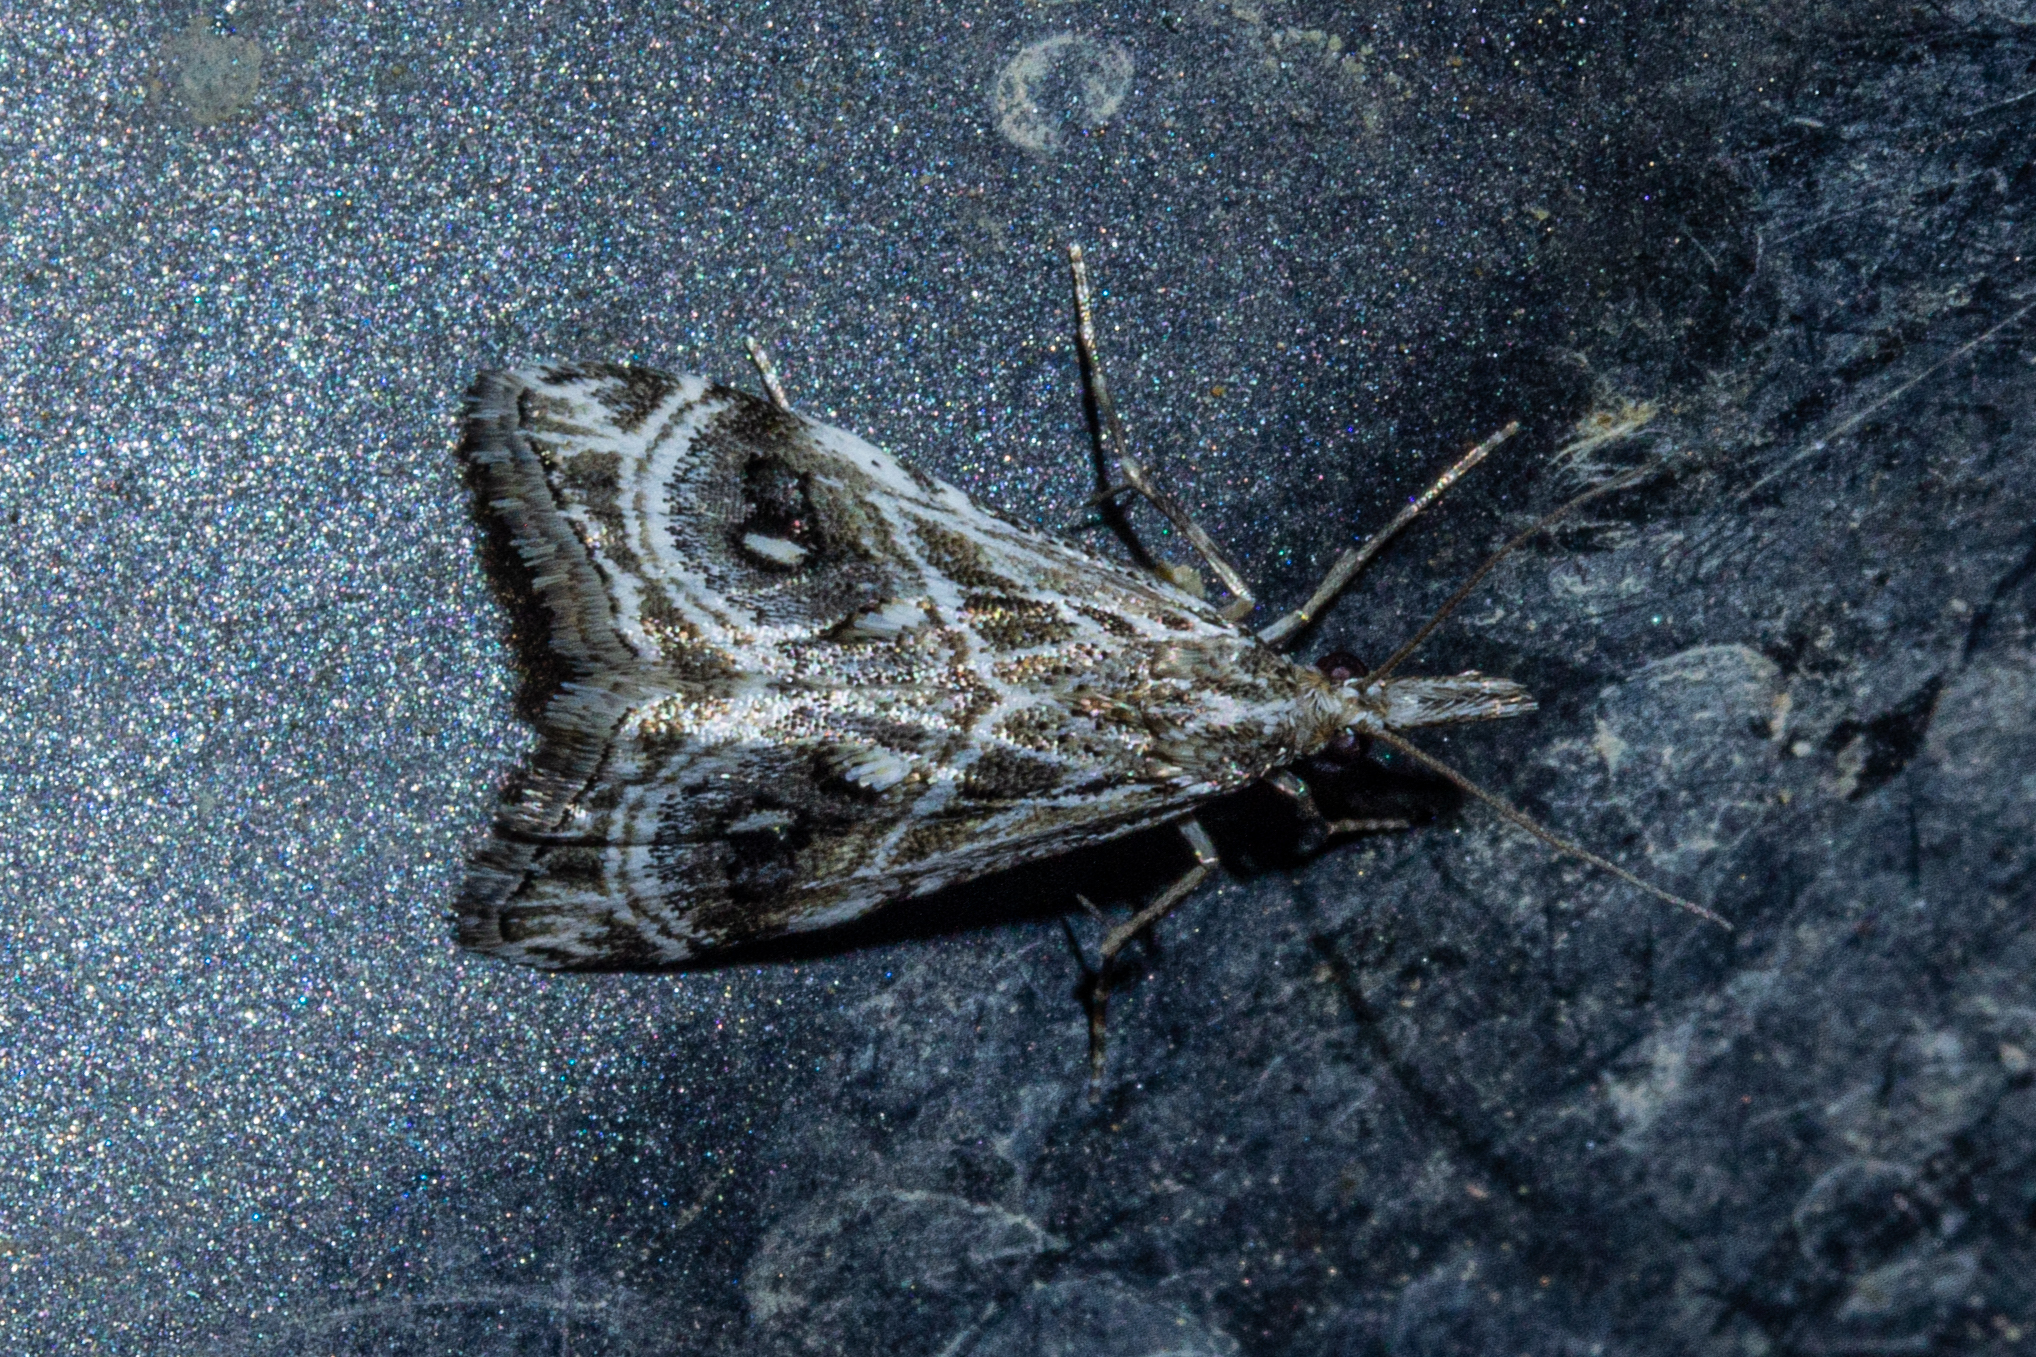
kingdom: Animalia
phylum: Arthropoda
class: Insecta
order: Lepidoptera
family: Crambidae
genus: Gadira
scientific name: Gadira acerella
